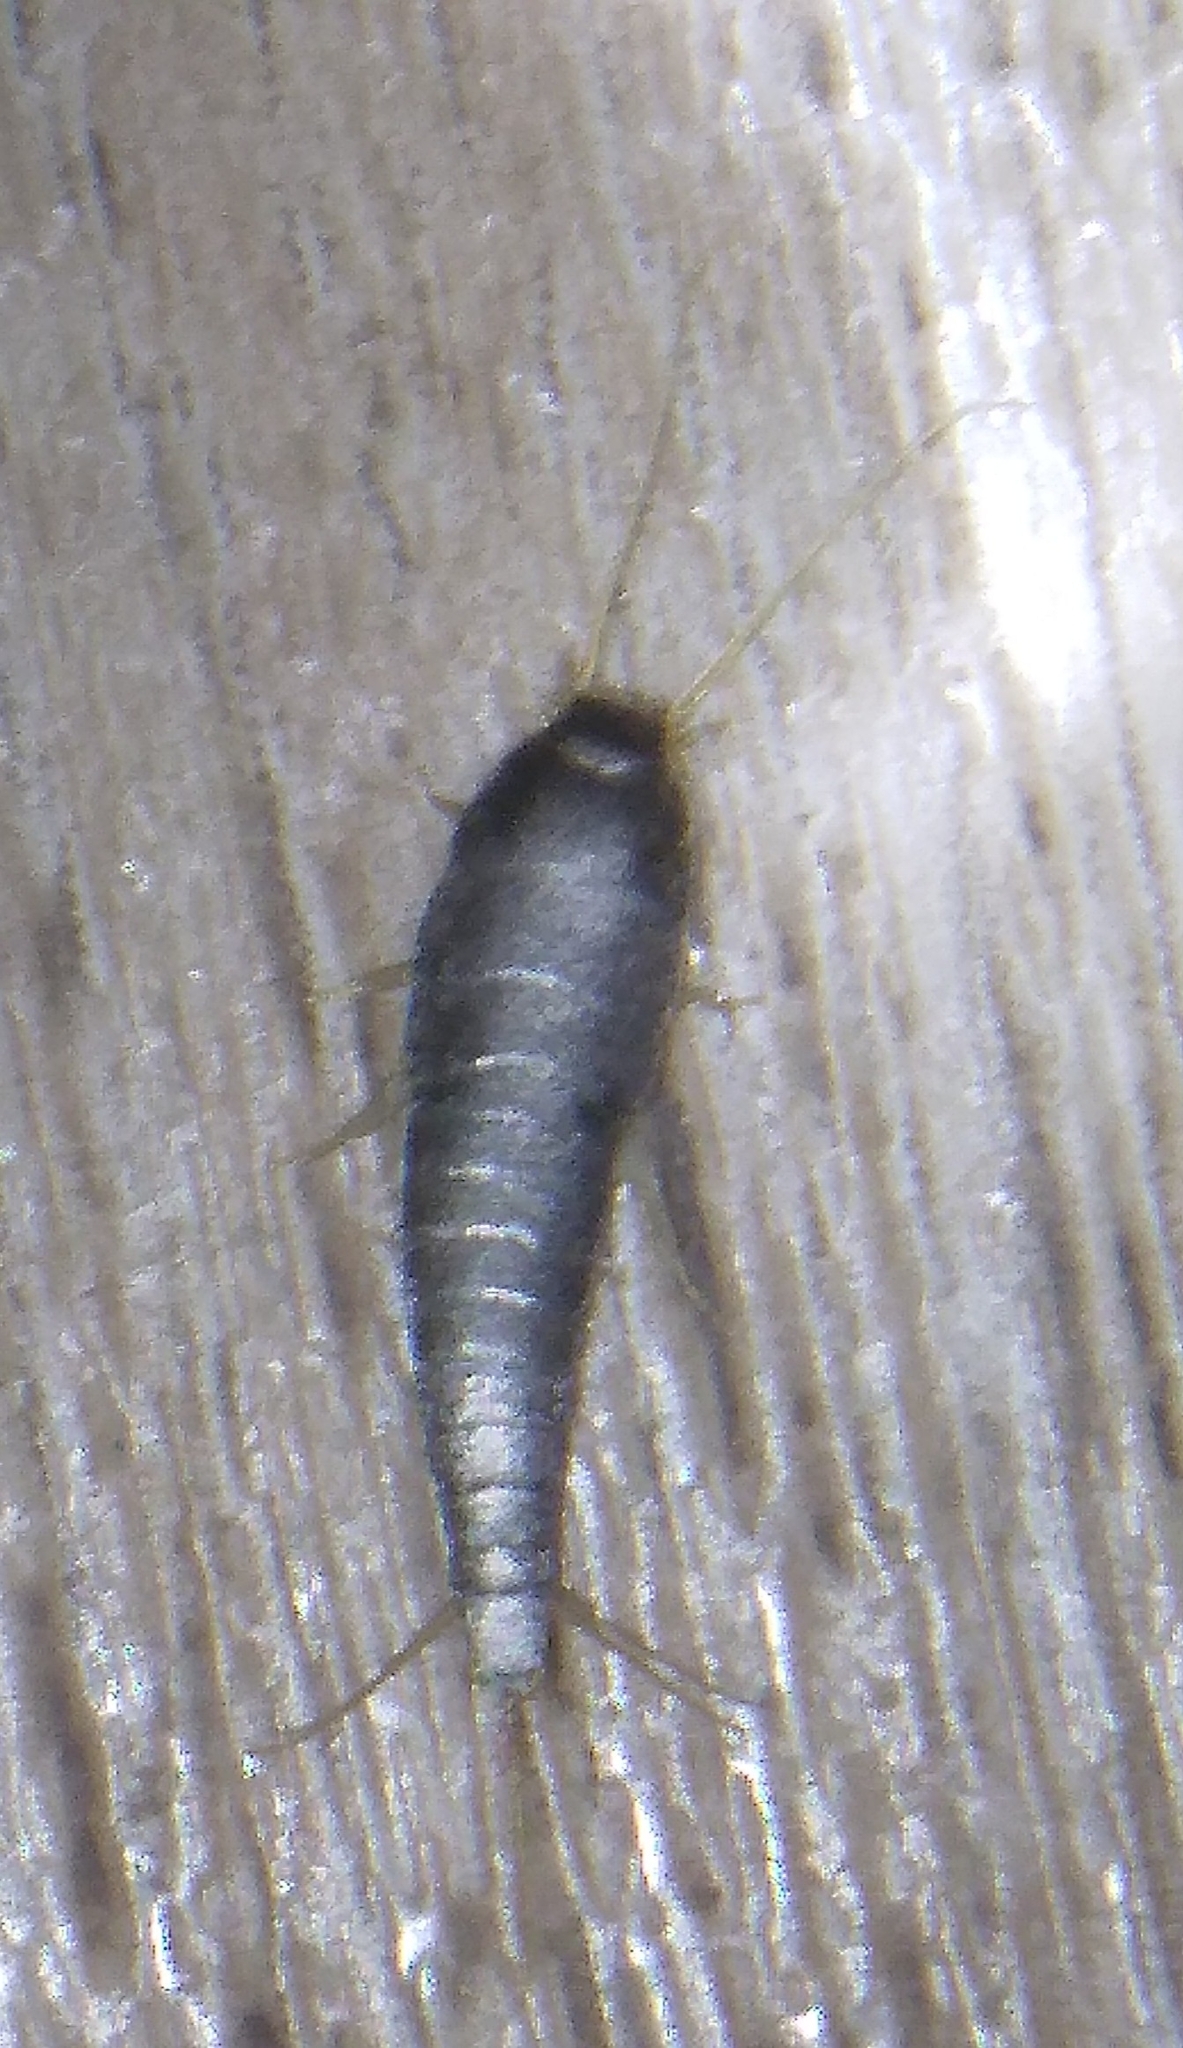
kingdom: Animalia
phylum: Arthropoda
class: Insecta
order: Zygentoma
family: Lepismatidae
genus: Lepisma
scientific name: Lepisma saccharinum
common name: Silverfish
